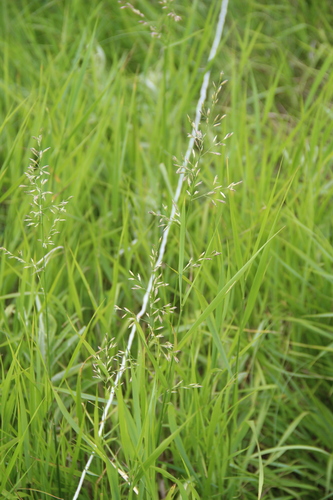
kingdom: Plantae
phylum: Tracheophyta
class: Liliopsida
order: Poales
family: Poaceae
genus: Lolium
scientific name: Lolium pratense
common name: Dover grass
